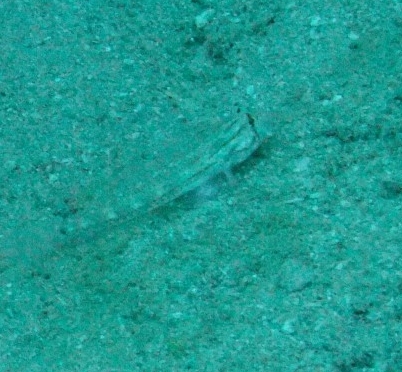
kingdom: Animalia
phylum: Chordata
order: Perciformes
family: Gobiidae
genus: Gnatholepis
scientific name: Gnatholepis caudimaculata
